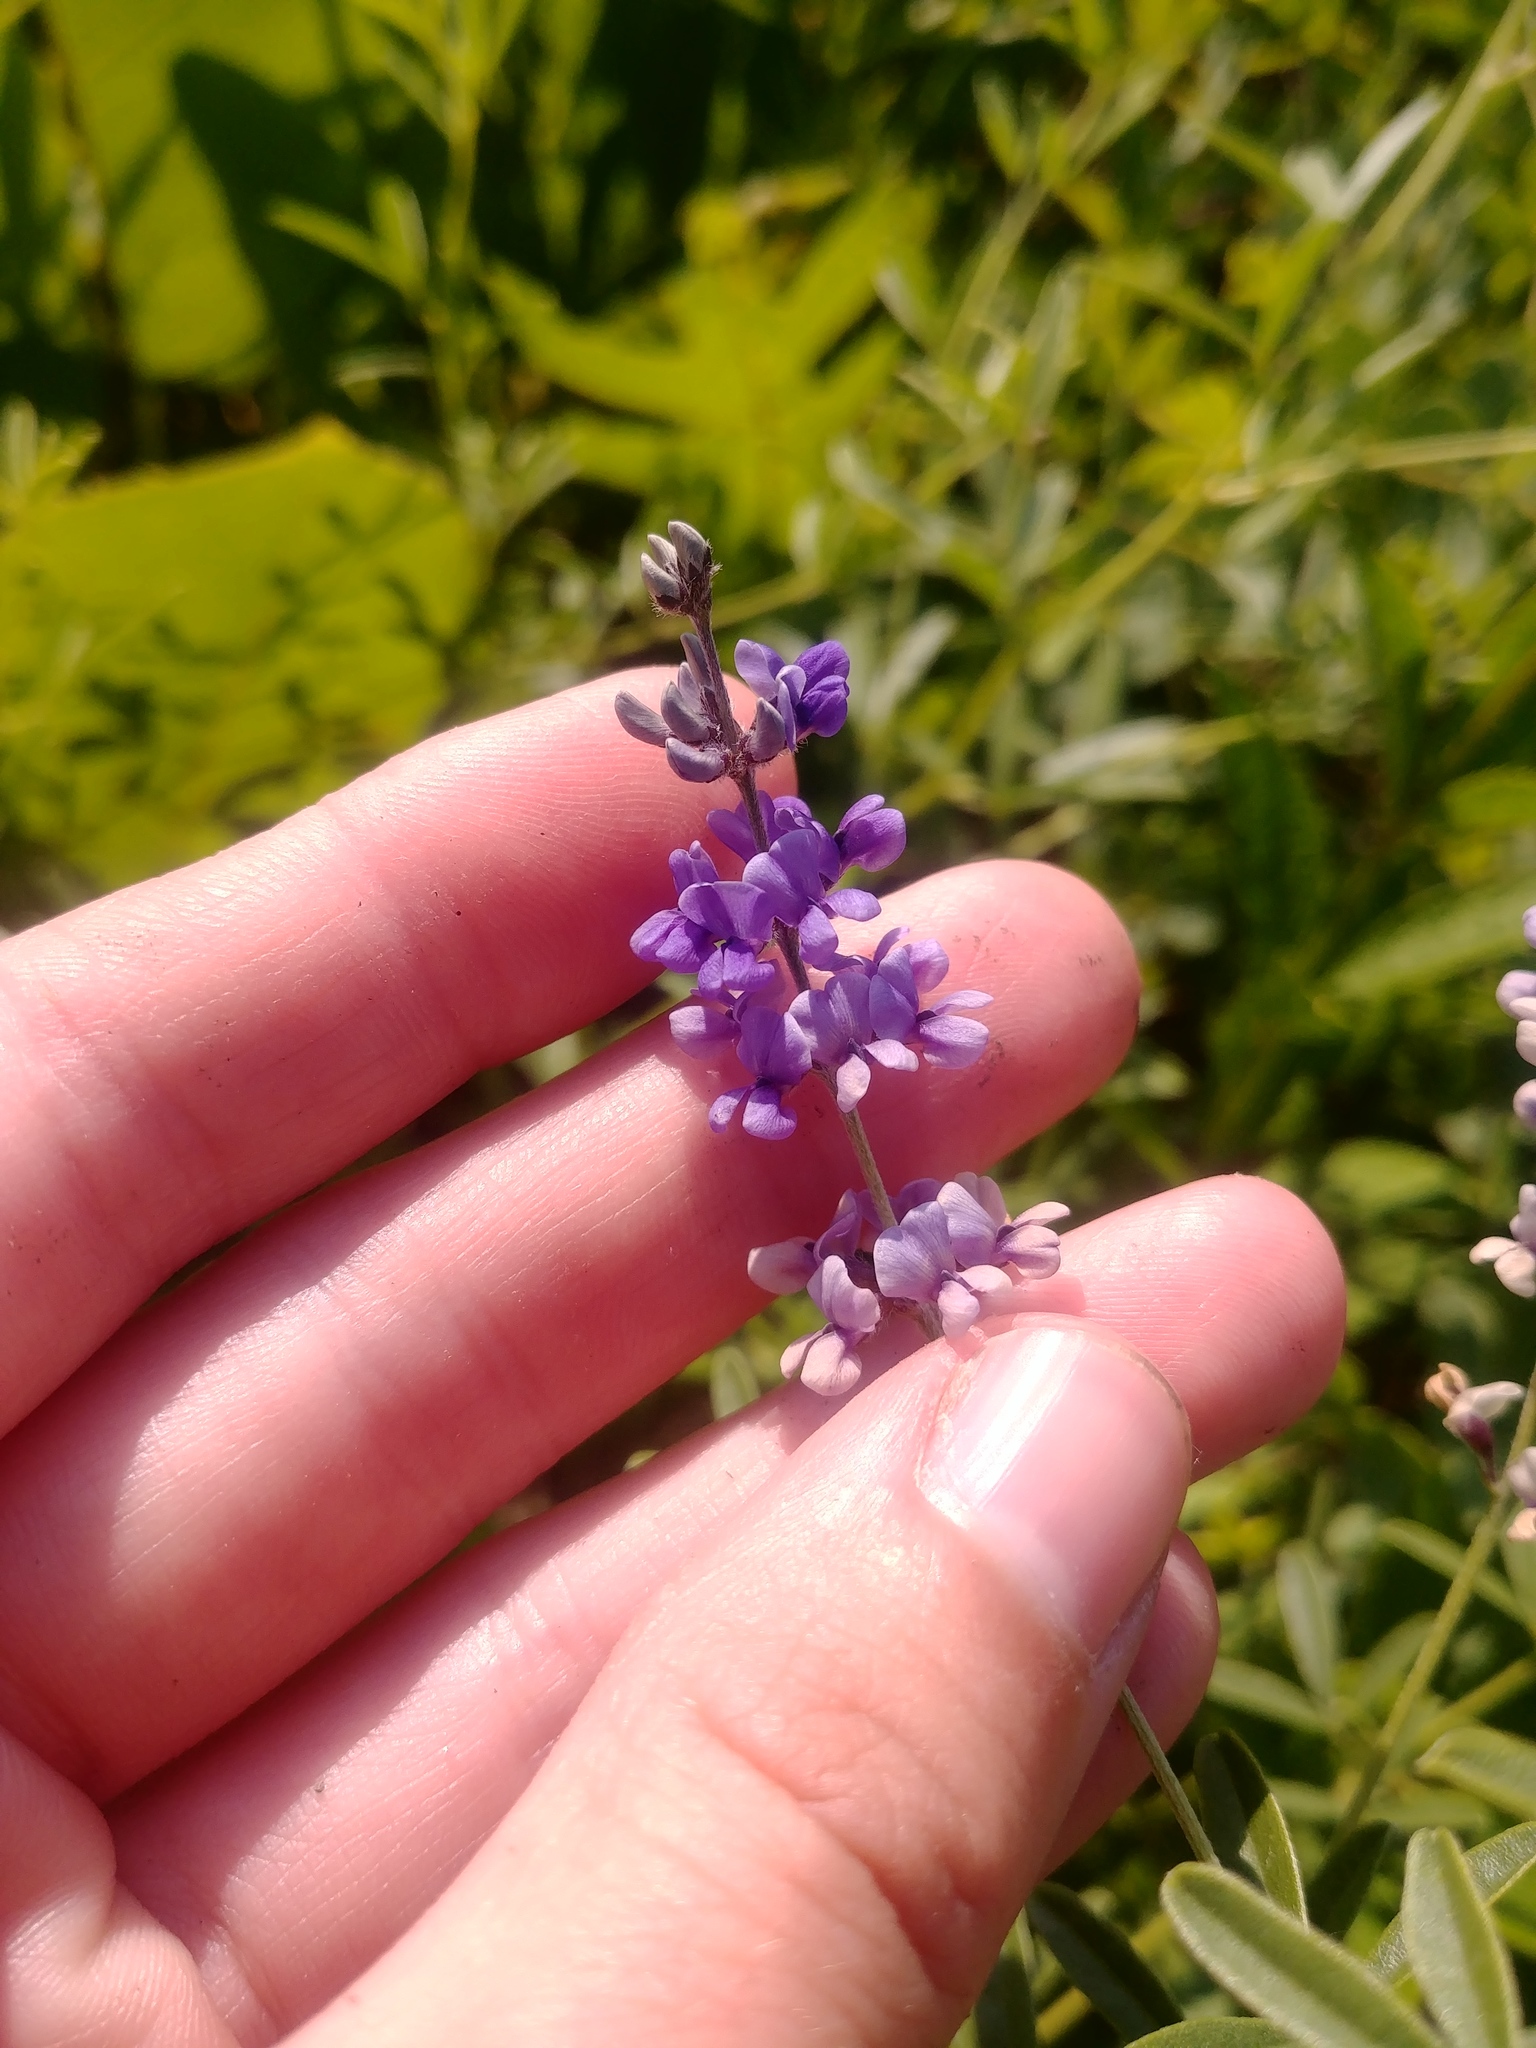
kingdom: Plantae
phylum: Tracheophyta
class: Magnoliopsida
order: Fabales
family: Fabaceae
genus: Pediomelum
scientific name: Pediomelum tenuiflorum
